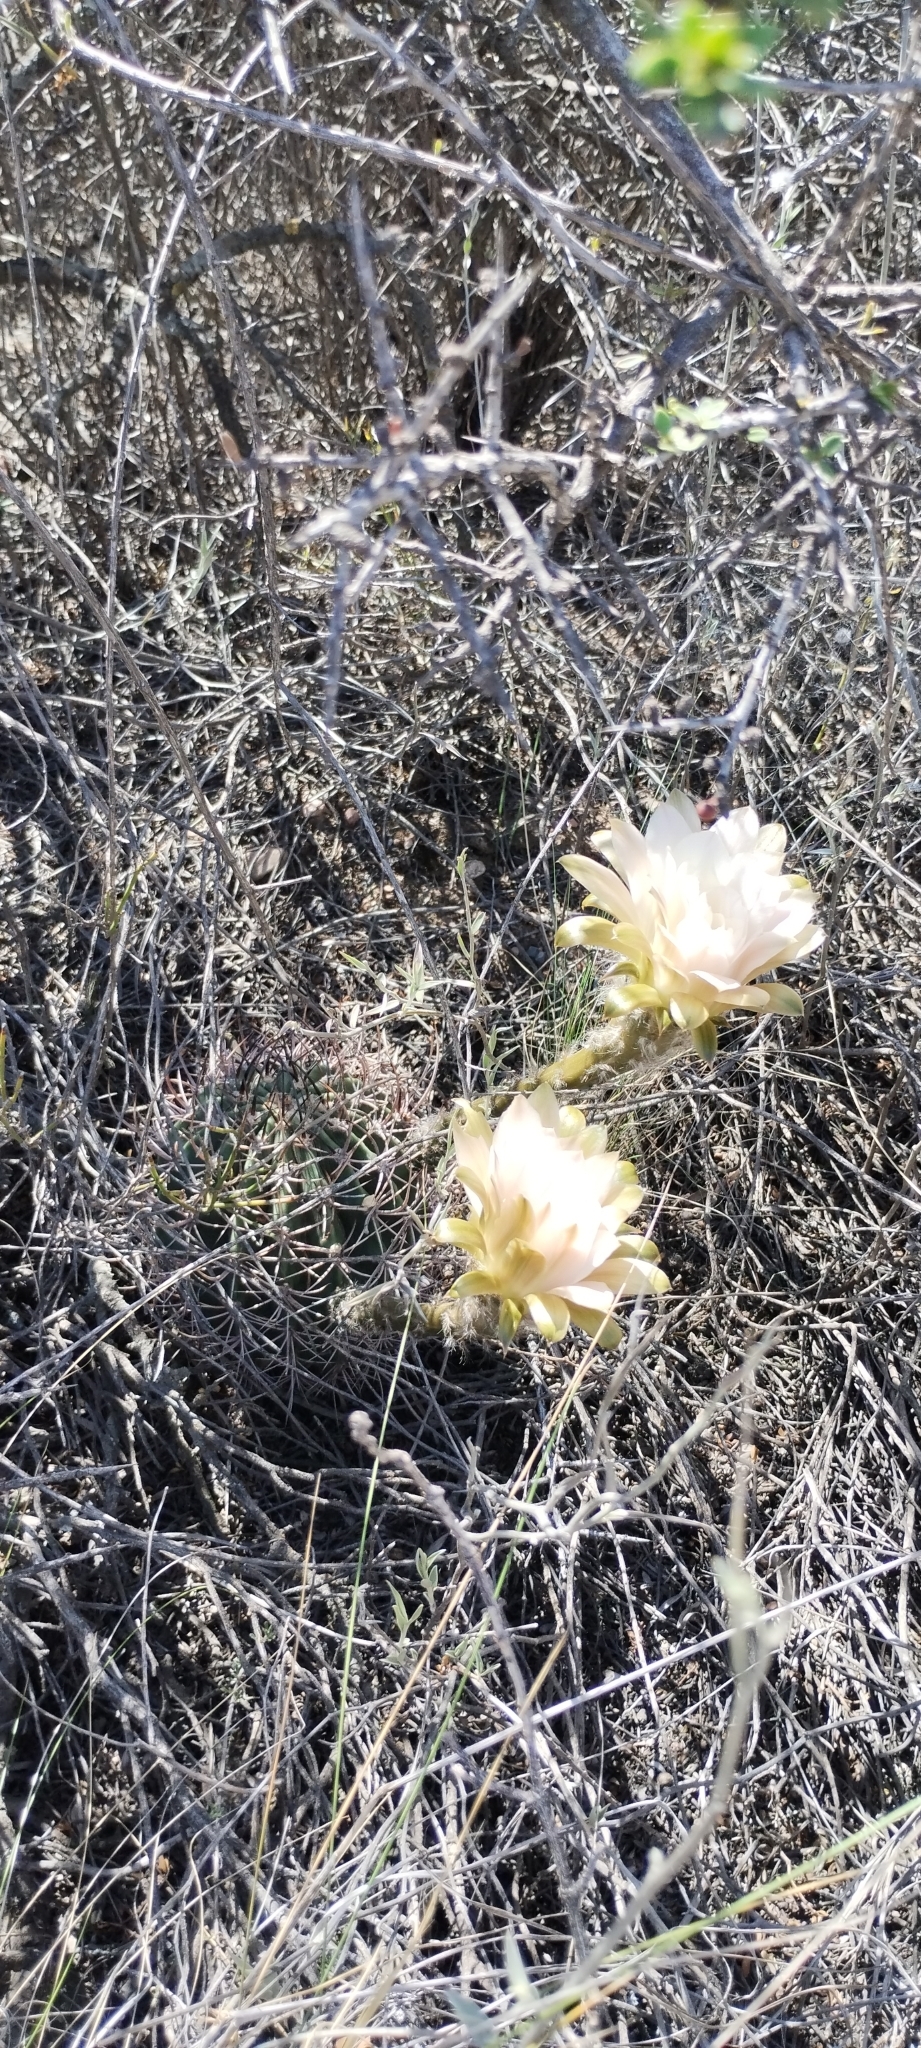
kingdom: Plantae
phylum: Tracheophyta
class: Magnoliopsida
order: Caryophyllales
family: Cactaceae
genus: Acanthocalycium
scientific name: Acanthocalycium leucanthum
